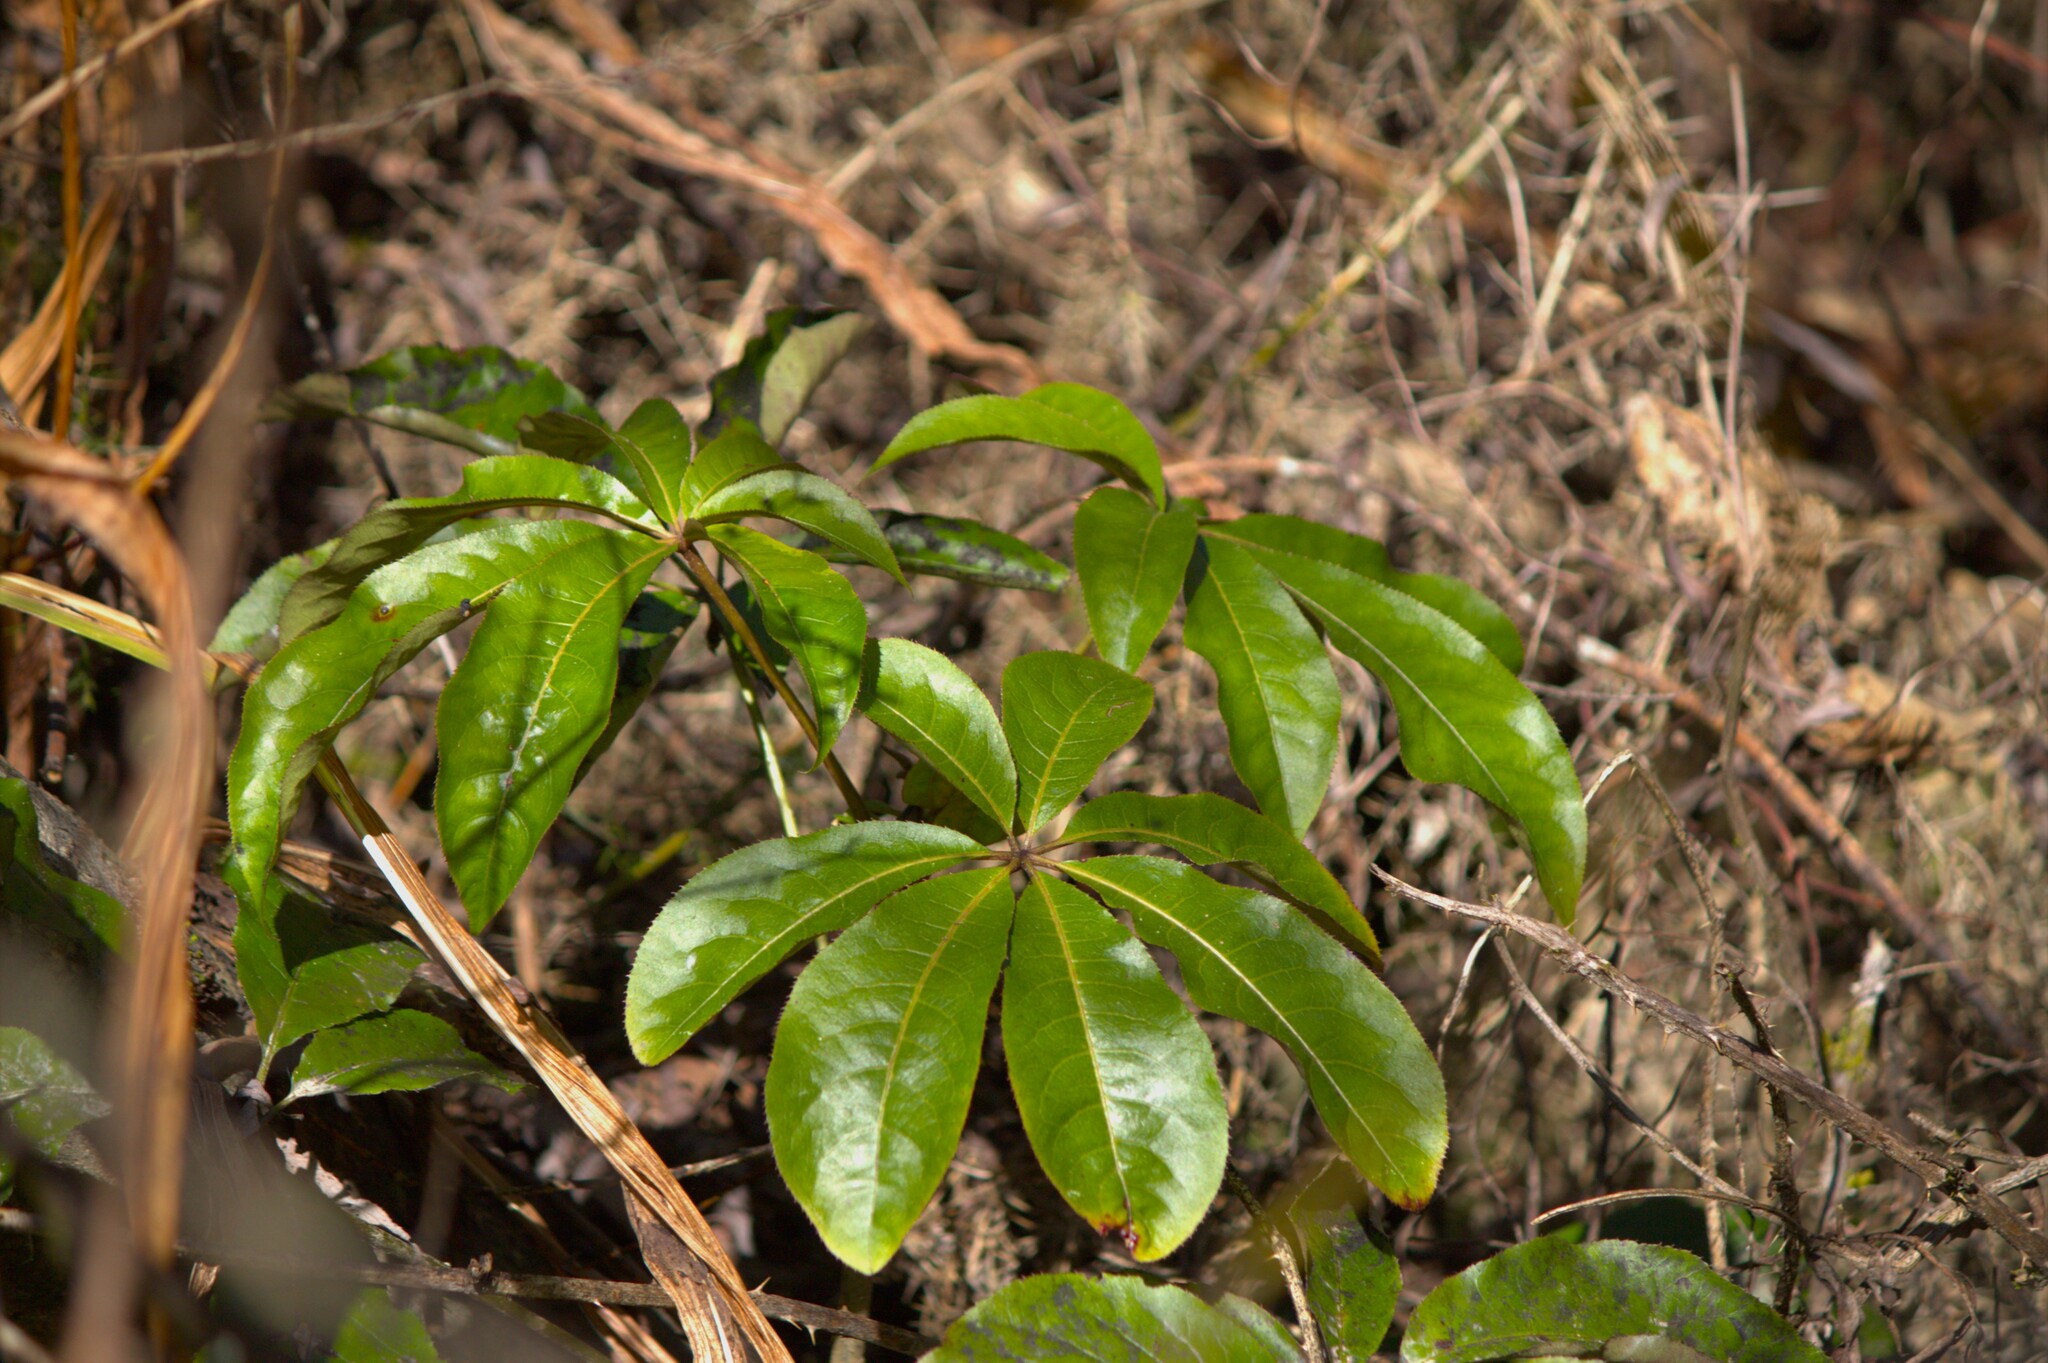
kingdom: Plantae
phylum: Tracheophyta
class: Magnoliopsida
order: Apiales
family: Araliaceae
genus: Schefflera
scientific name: Schefflera digitata
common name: Pate
